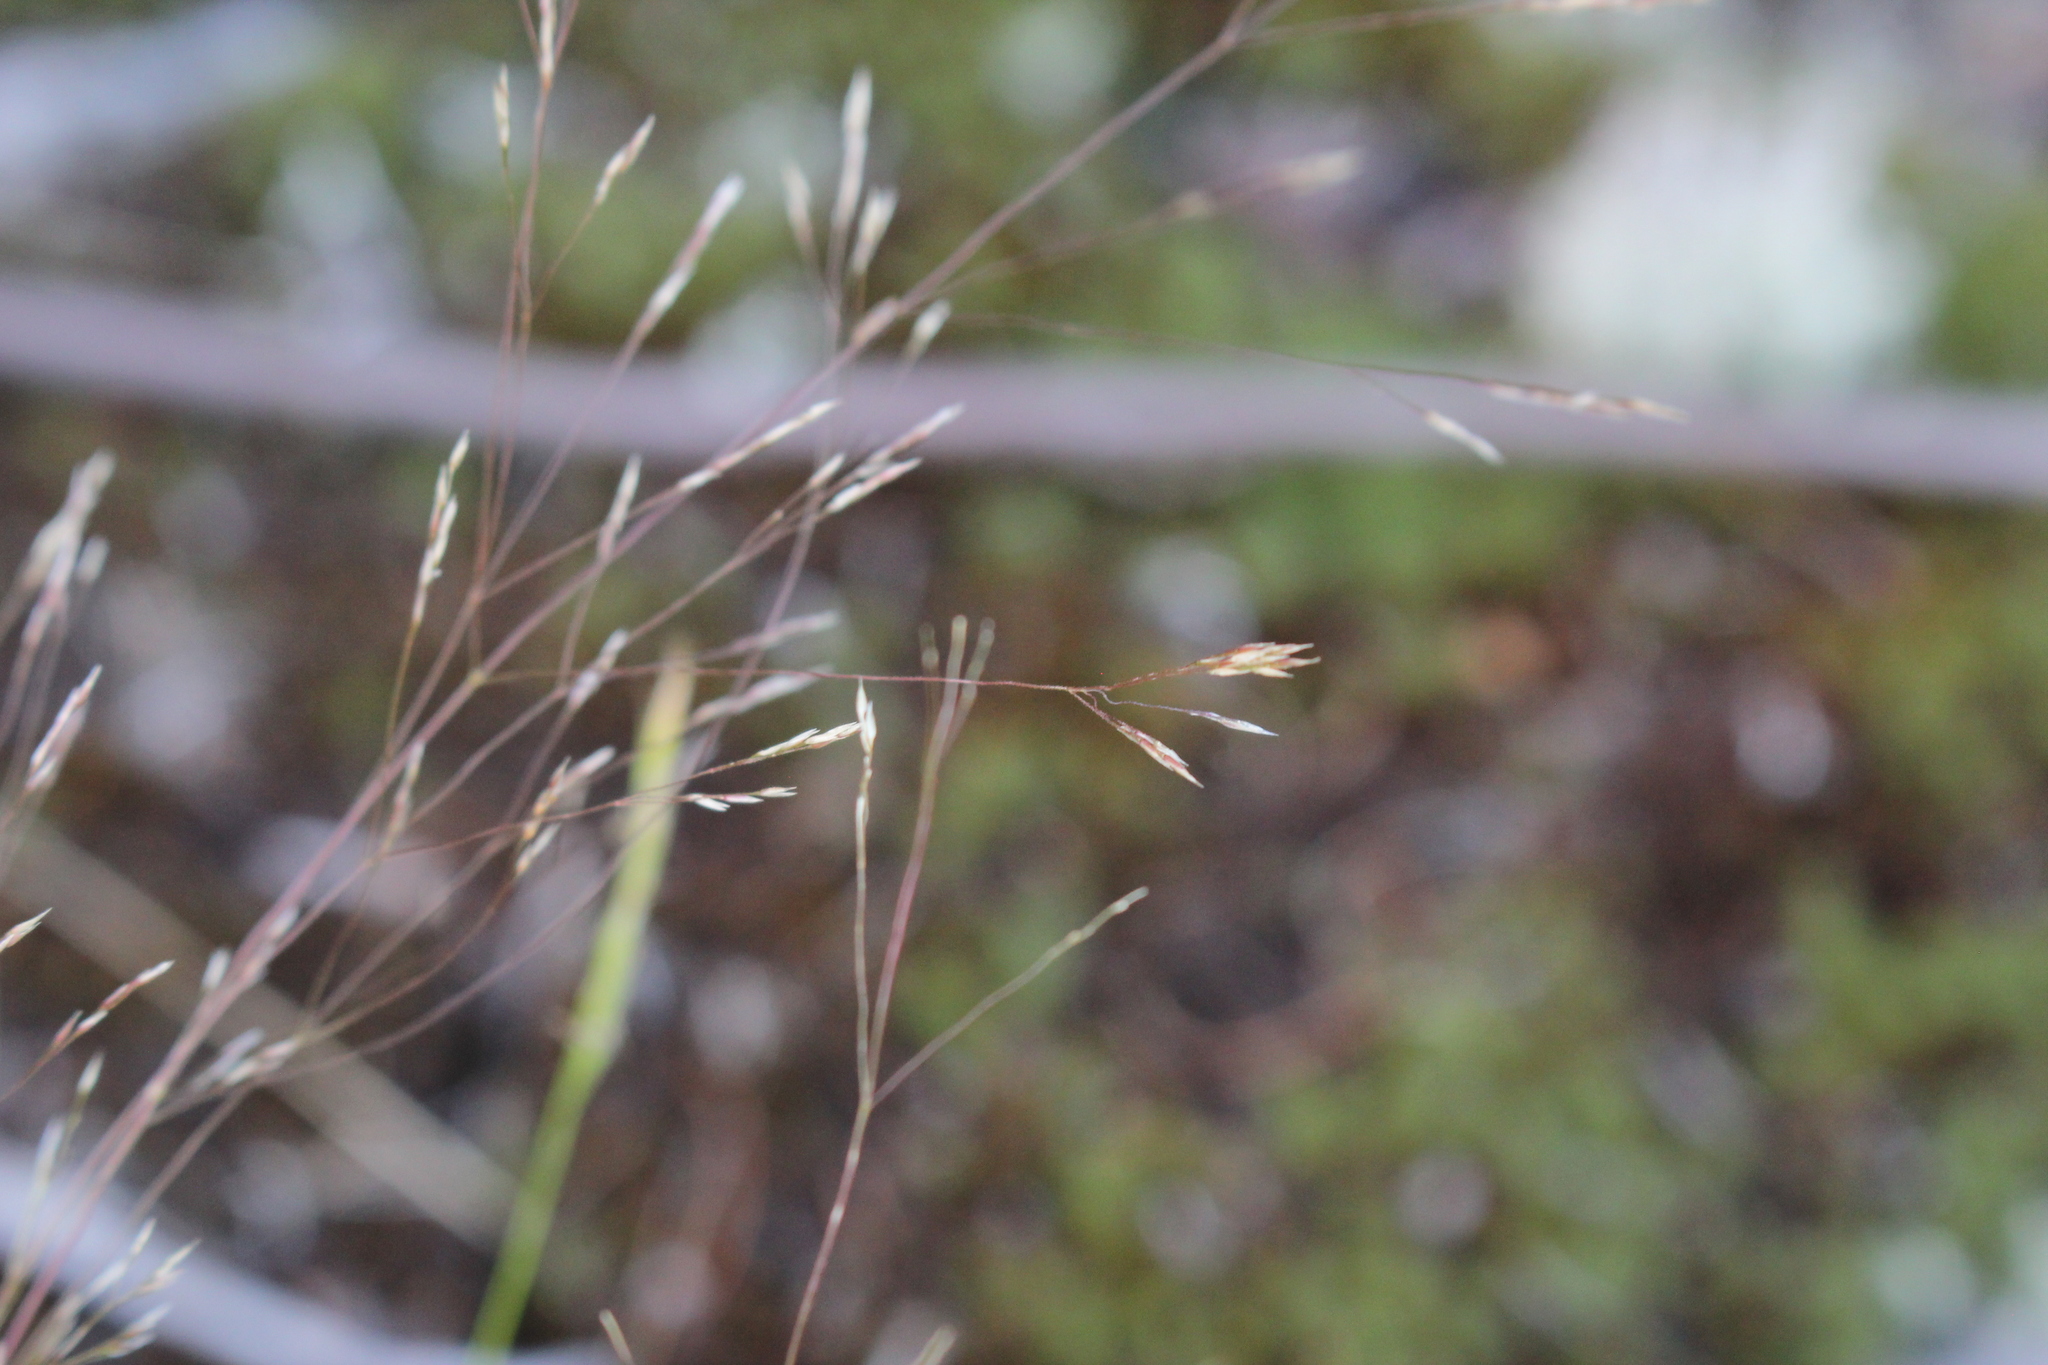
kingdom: Plantae
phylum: Tracheophyta
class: Liliopsida
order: Poales
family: Poaceae
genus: Agrostis
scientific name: Agrostis scabra
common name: Rough bent
